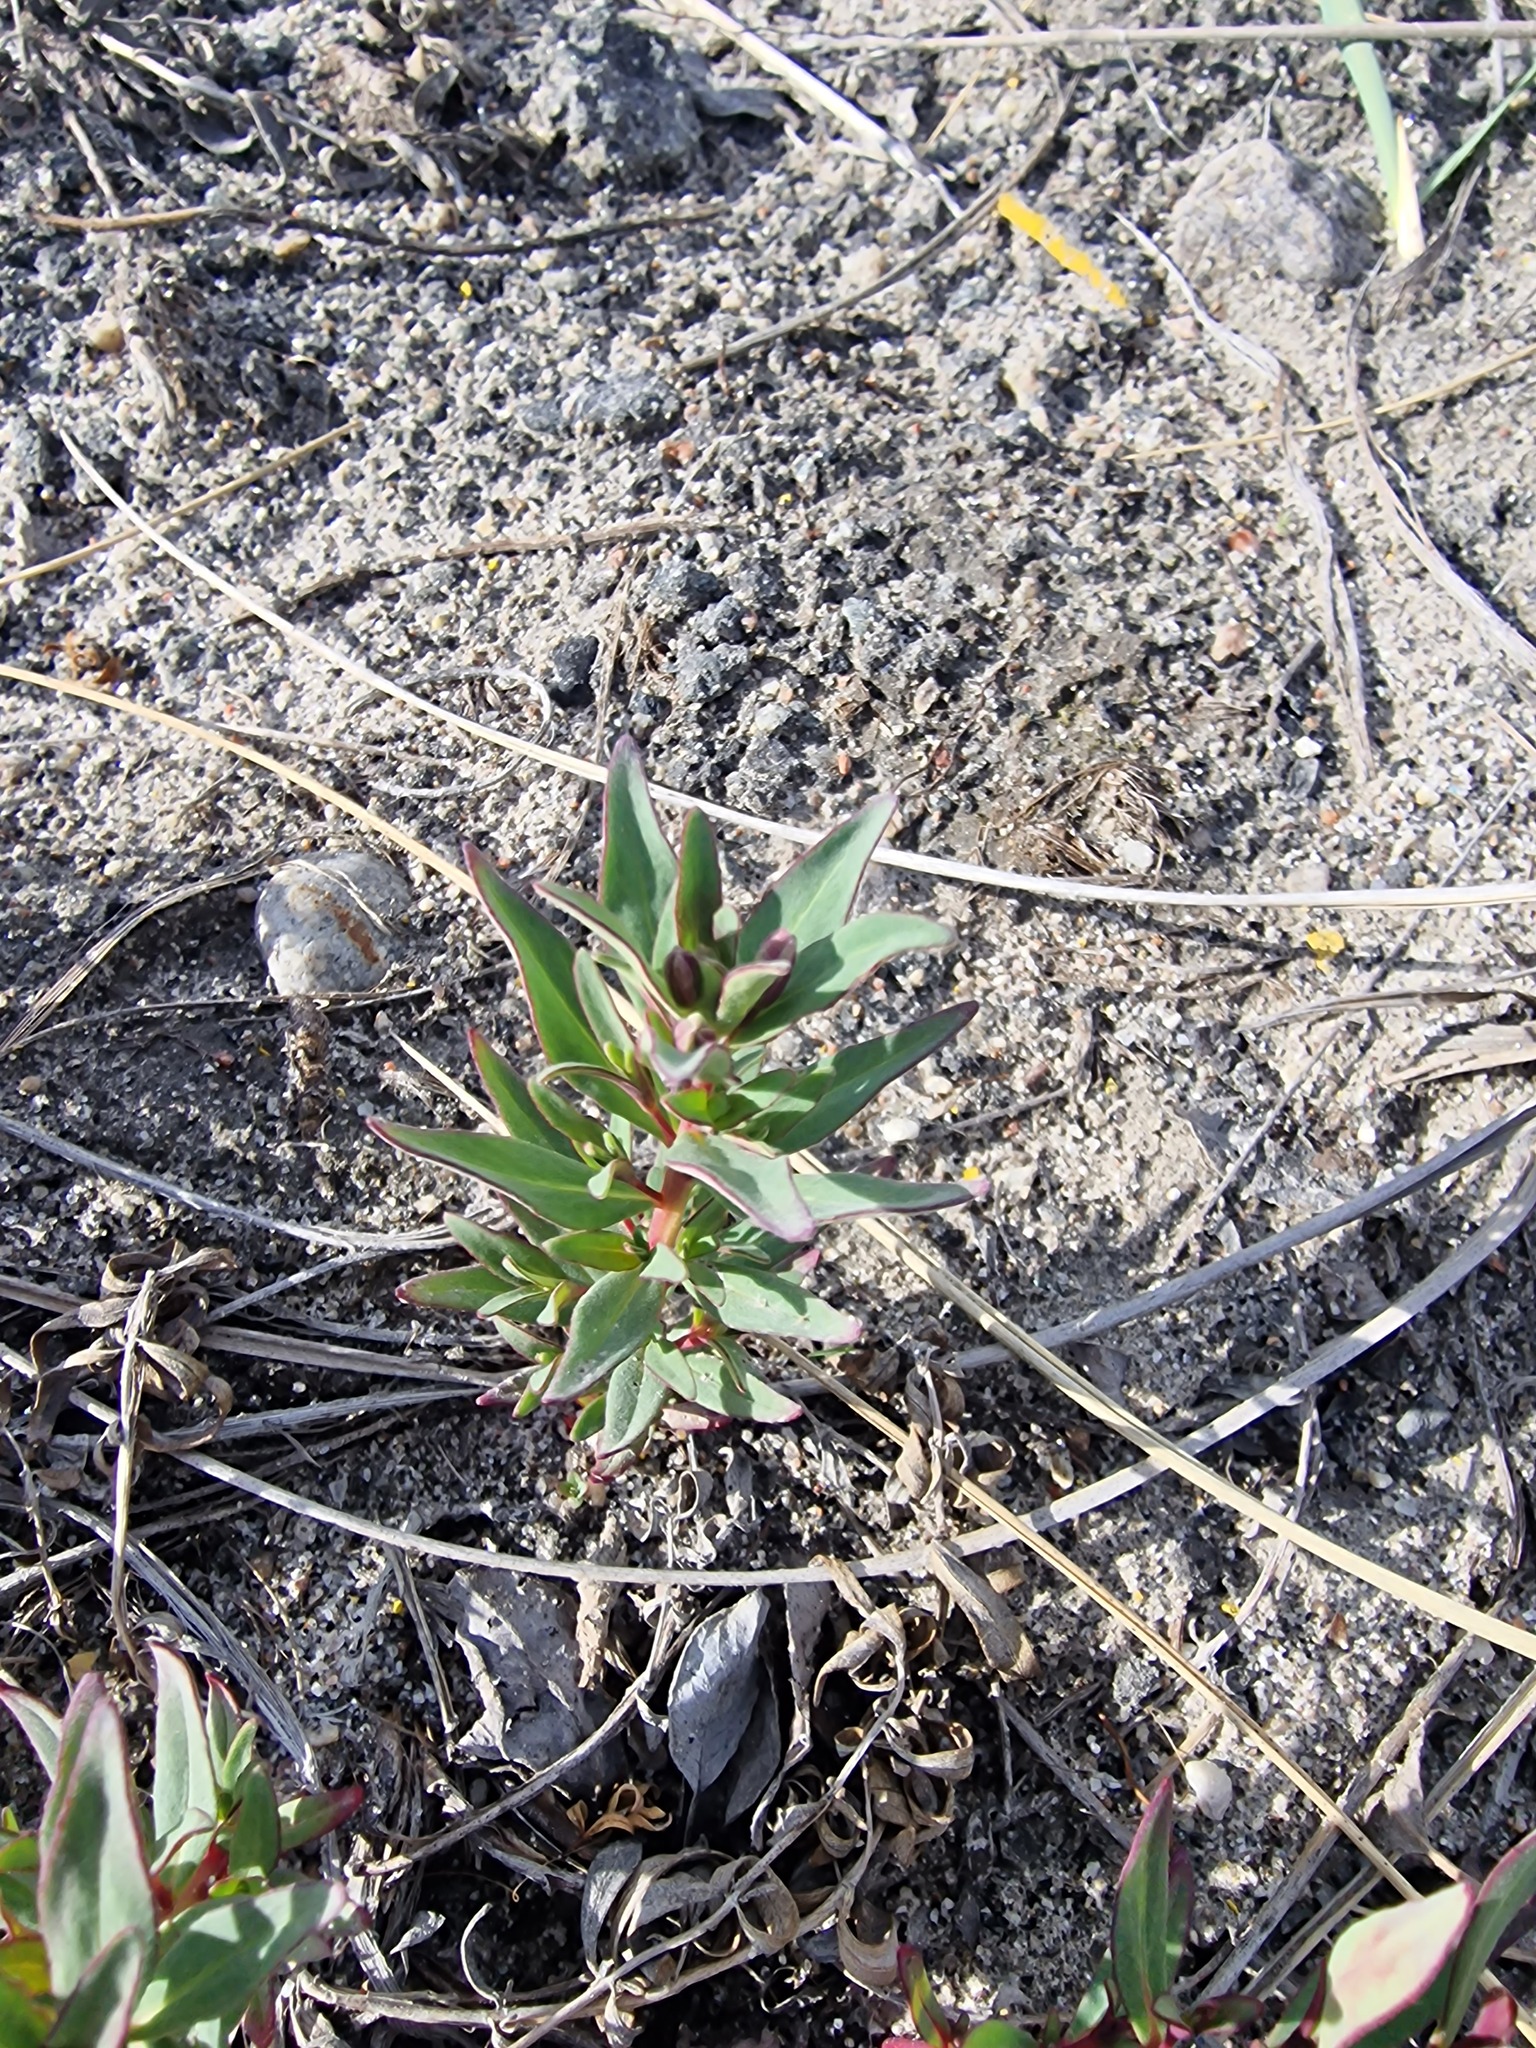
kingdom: Plantae
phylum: Tracheophyta
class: Magnoliopsida
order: Myrtales
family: Onagraceae
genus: Chamaenerion
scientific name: Chamaenerion latifolium
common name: Dwarf fireweed
